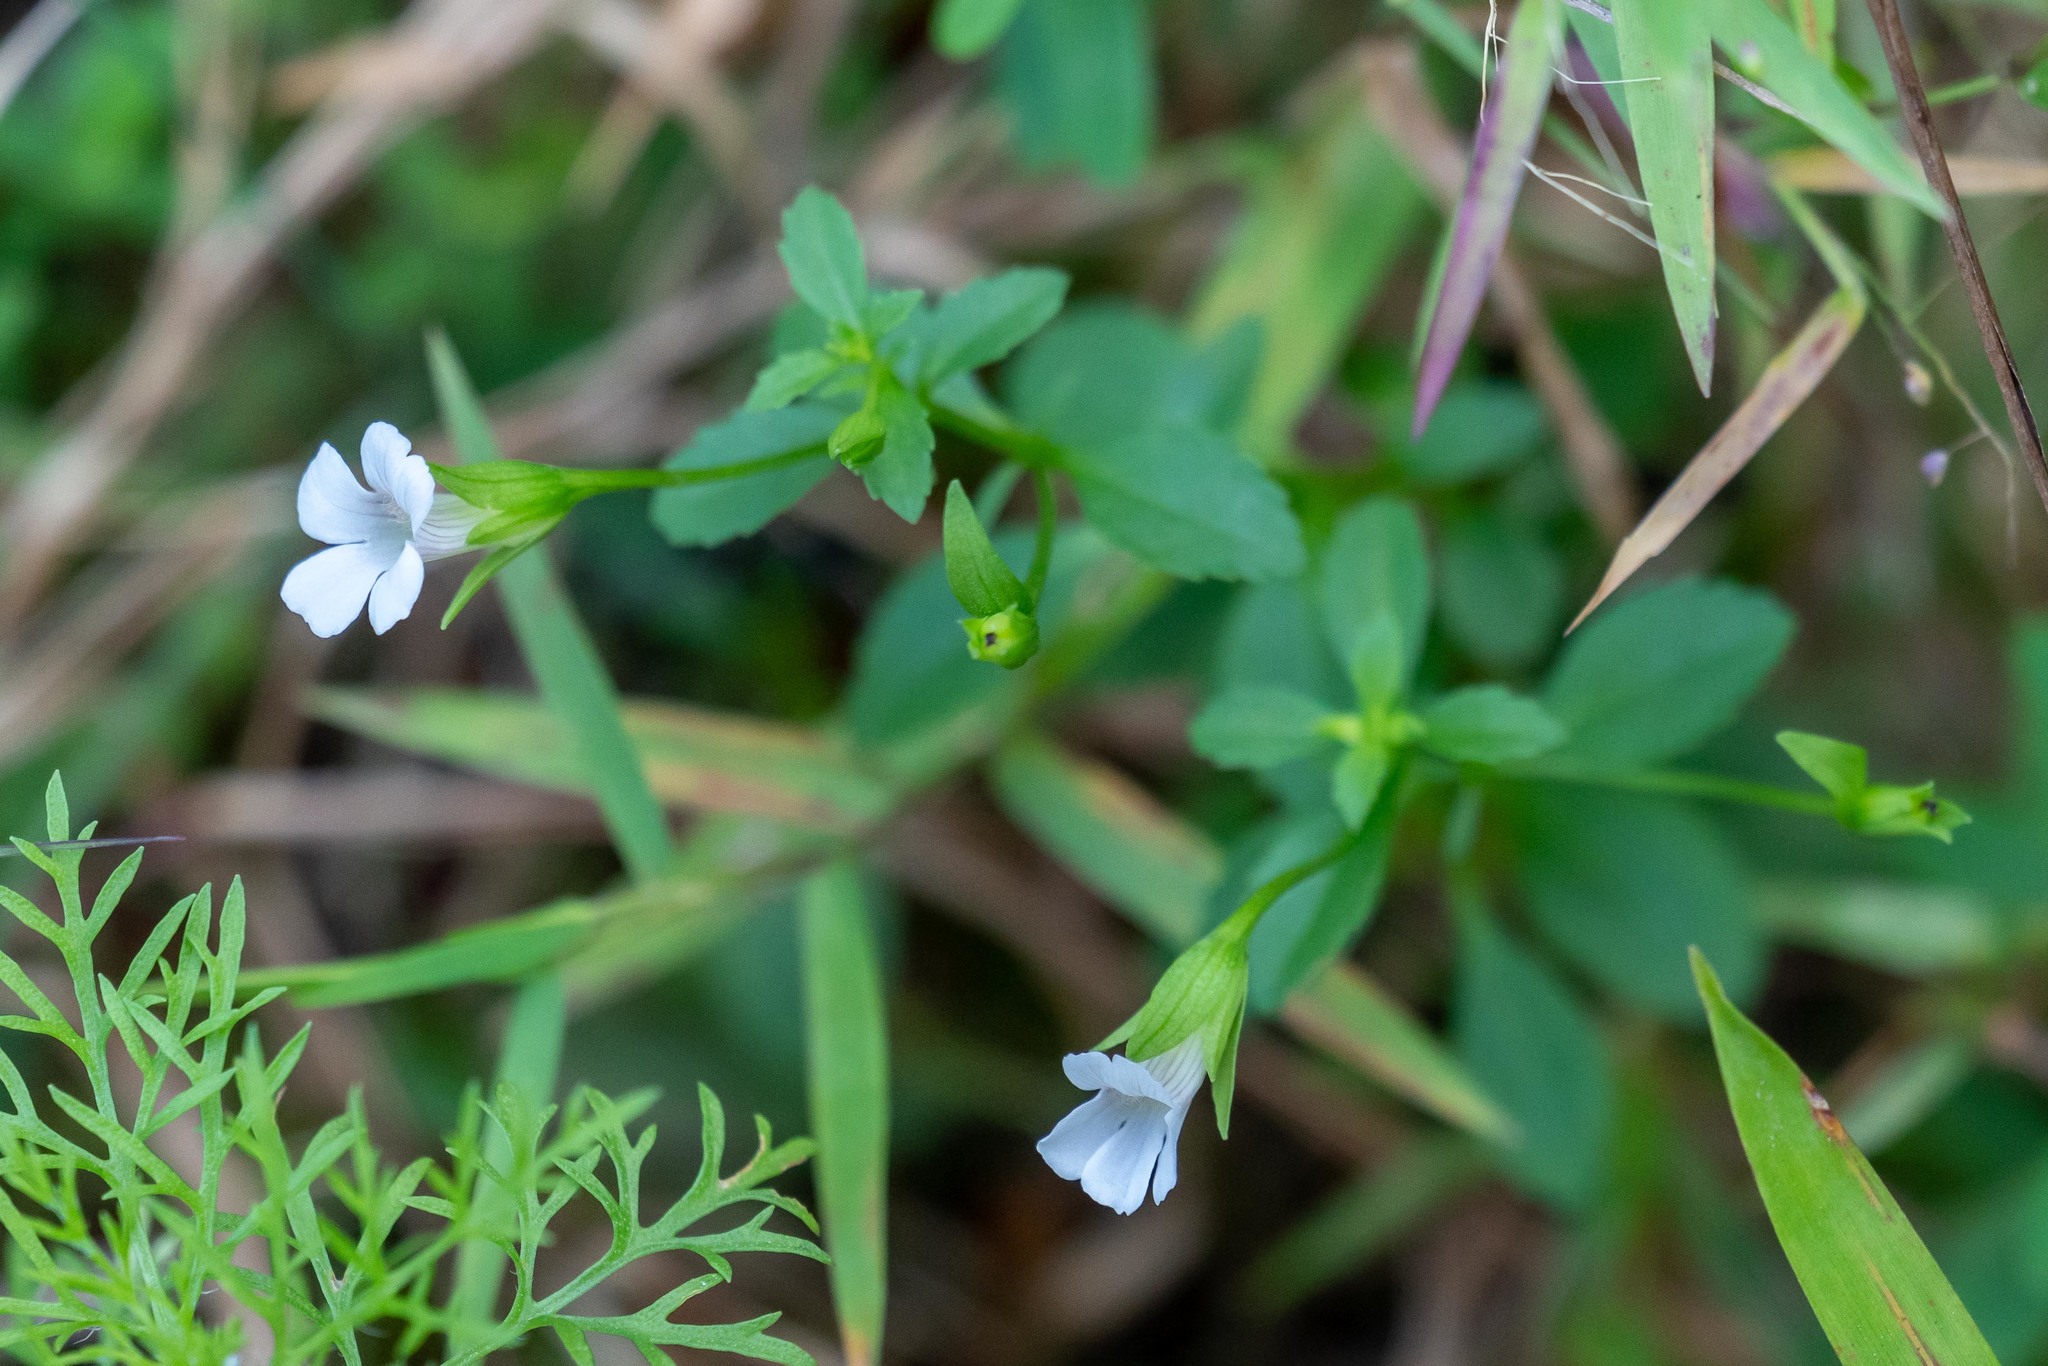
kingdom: Plantae
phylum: Tracheophyta
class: Magnoliopsida
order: Lamiales
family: Plantaginaceae
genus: Mecardonia
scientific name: Mecardonia acuminata
